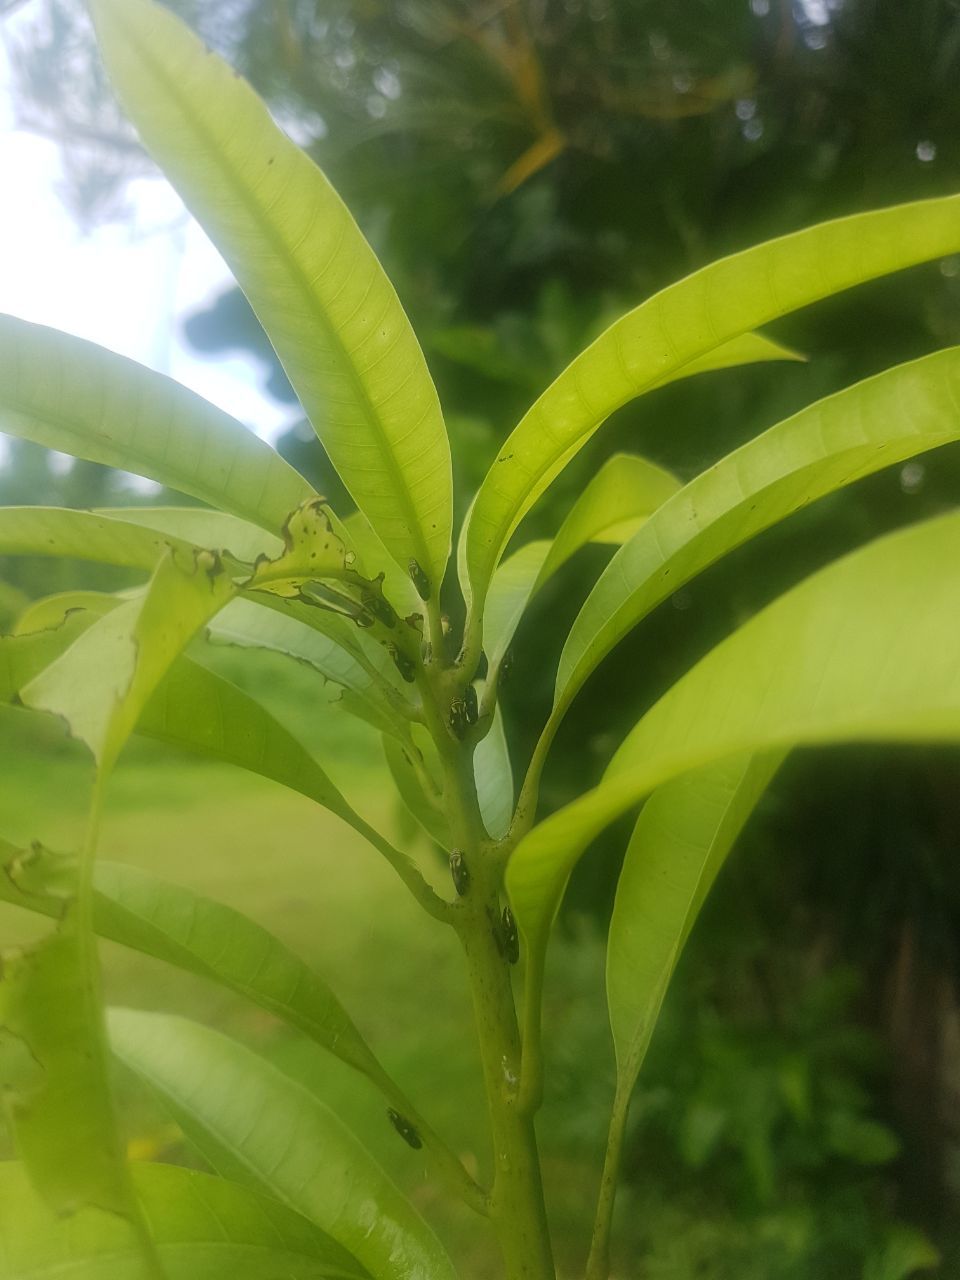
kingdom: Animalia
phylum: Arthropoda
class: Insecta
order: Hemiptera
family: Aphrophoridae
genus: Lallemandana
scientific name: Lallemandana phalerata
